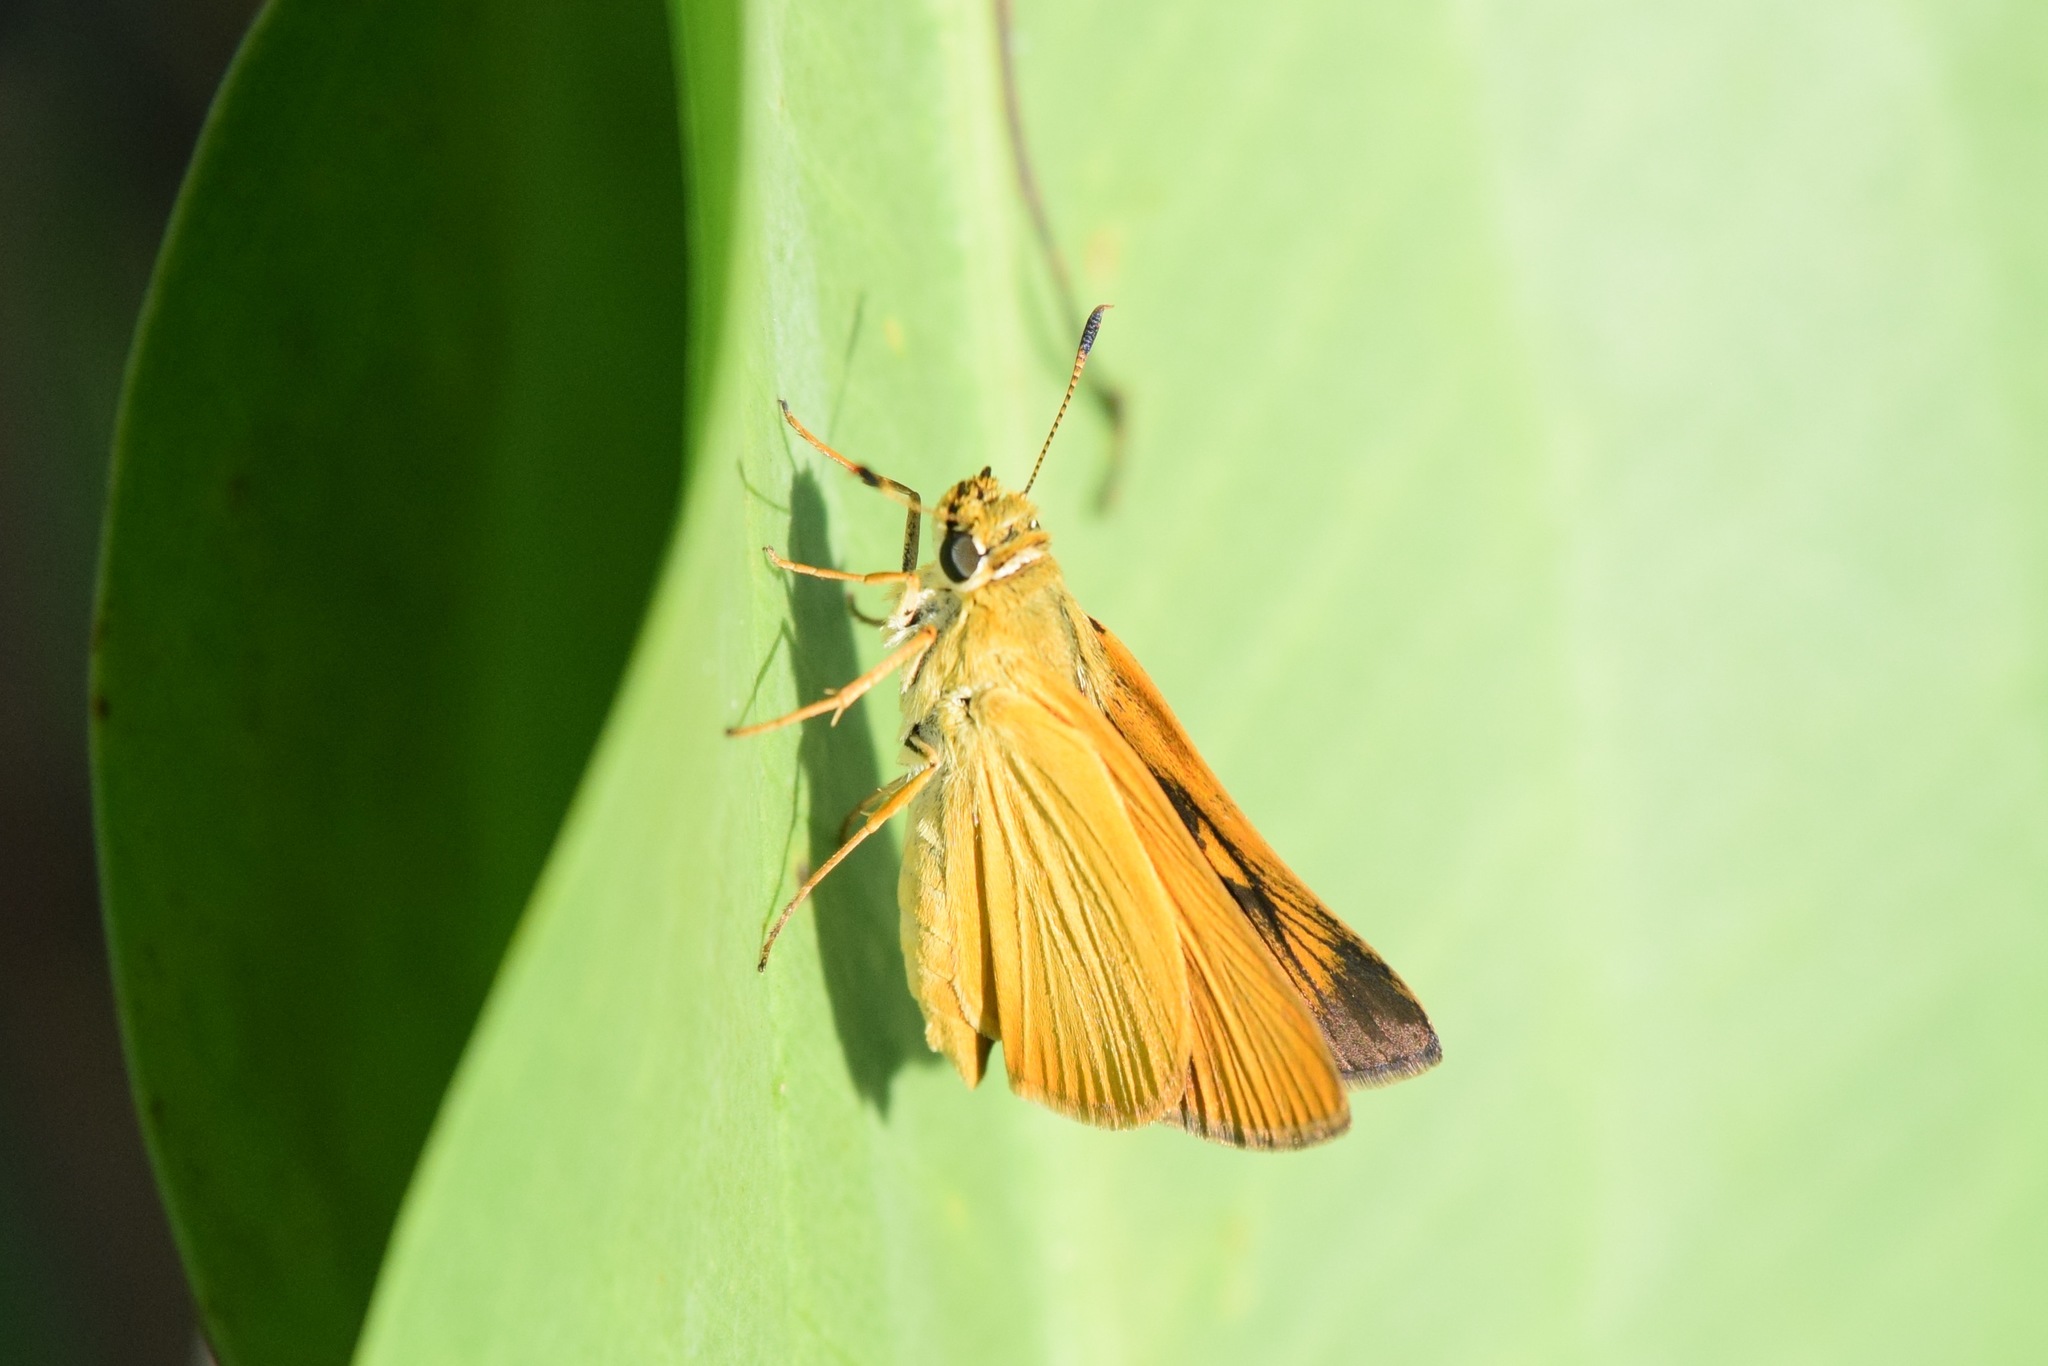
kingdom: Animalia
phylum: Arthropoda
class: Insecta
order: Lepidoptera
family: Hesperiidae
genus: Atrytone
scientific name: Atrytone delaware
